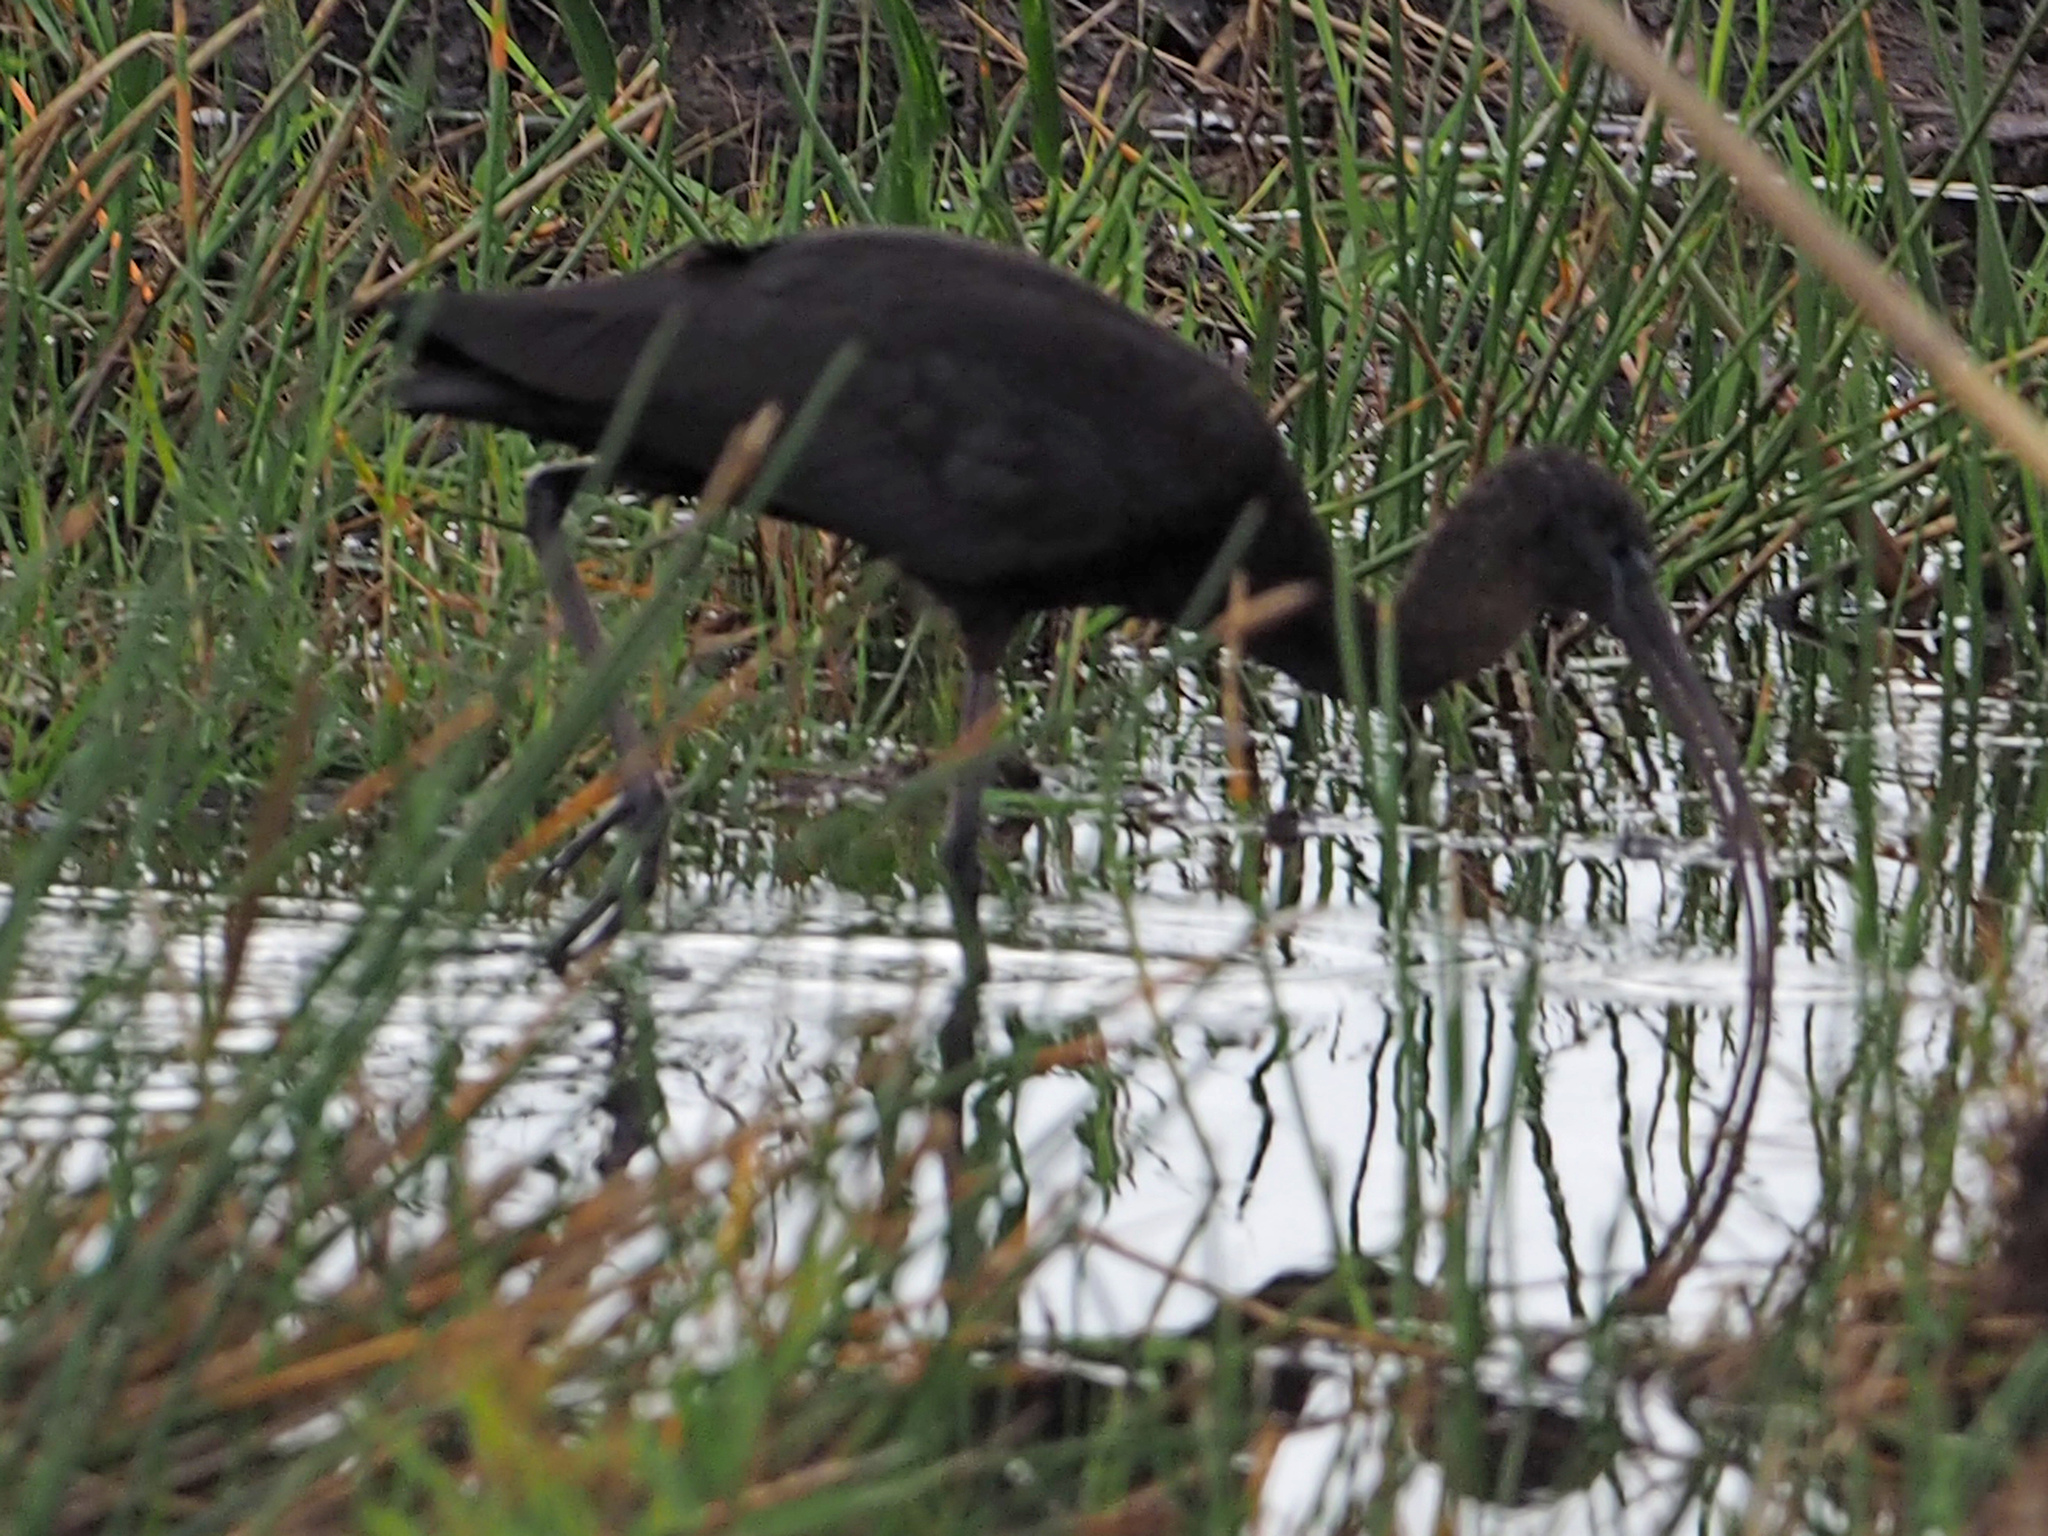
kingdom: Animalia
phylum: Chordata
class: Aves
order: Pelecaniformes
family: Threskiornithidae
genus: Plegadis
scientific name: Plegadis falcinellus
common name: Glossy ibis
